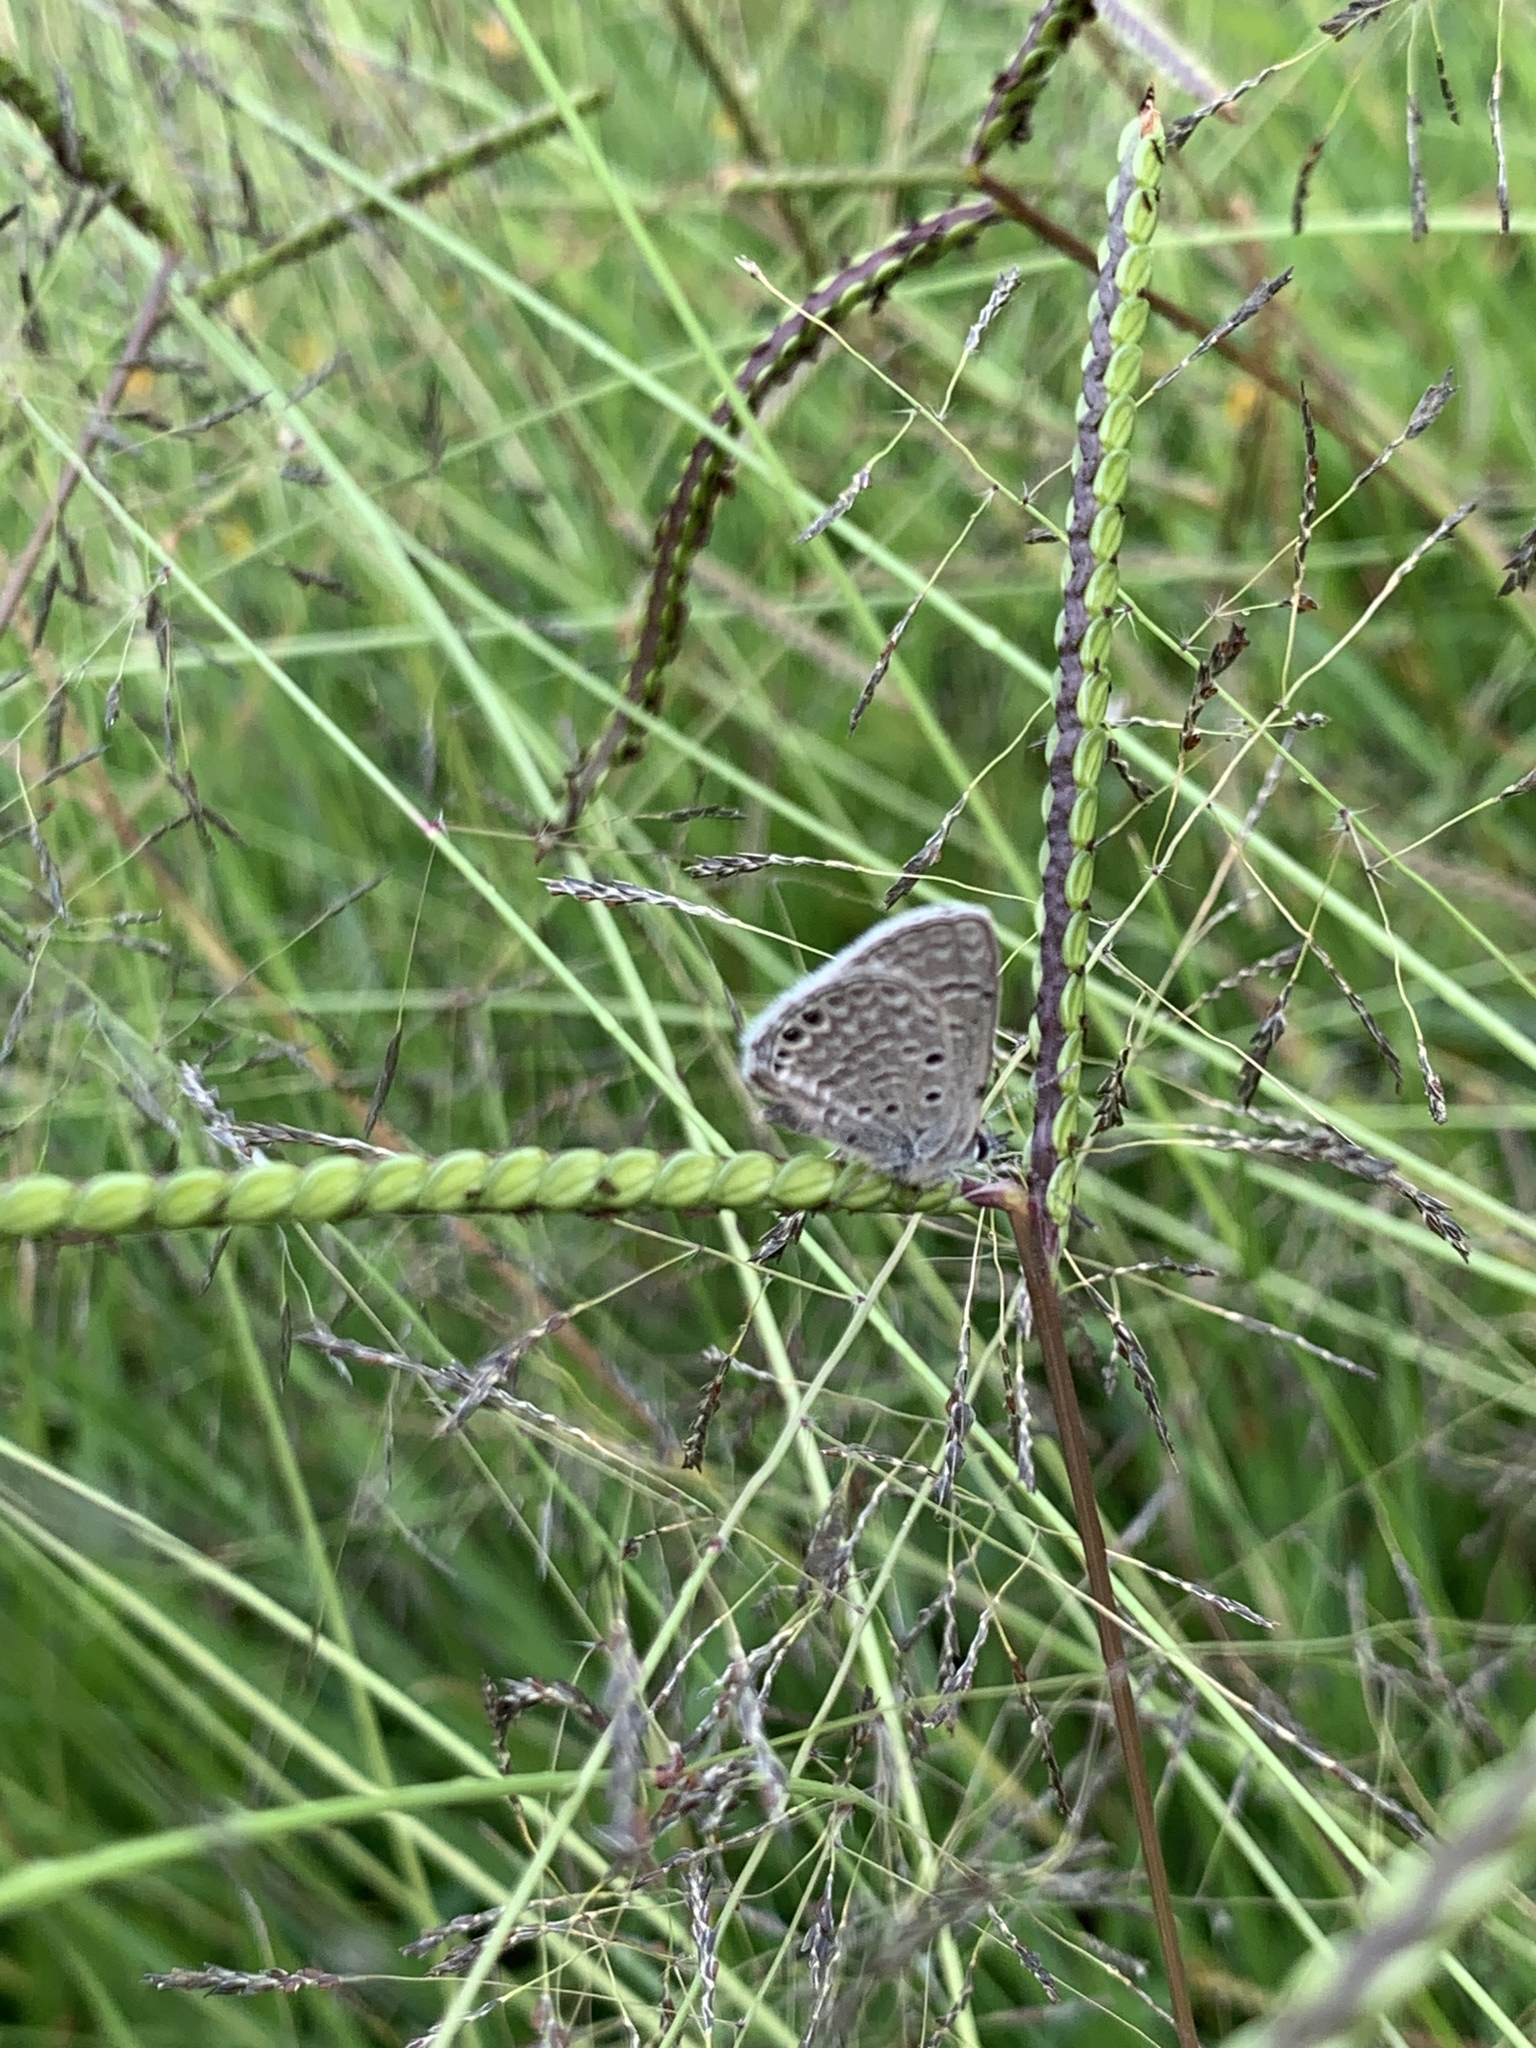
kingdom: Animalia
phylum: Arthropoda
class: Insecta
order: Lepidoptera
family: Lycaenidae
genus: Hemiargus
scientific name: Hemiargus ramon
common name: Ramon blue
